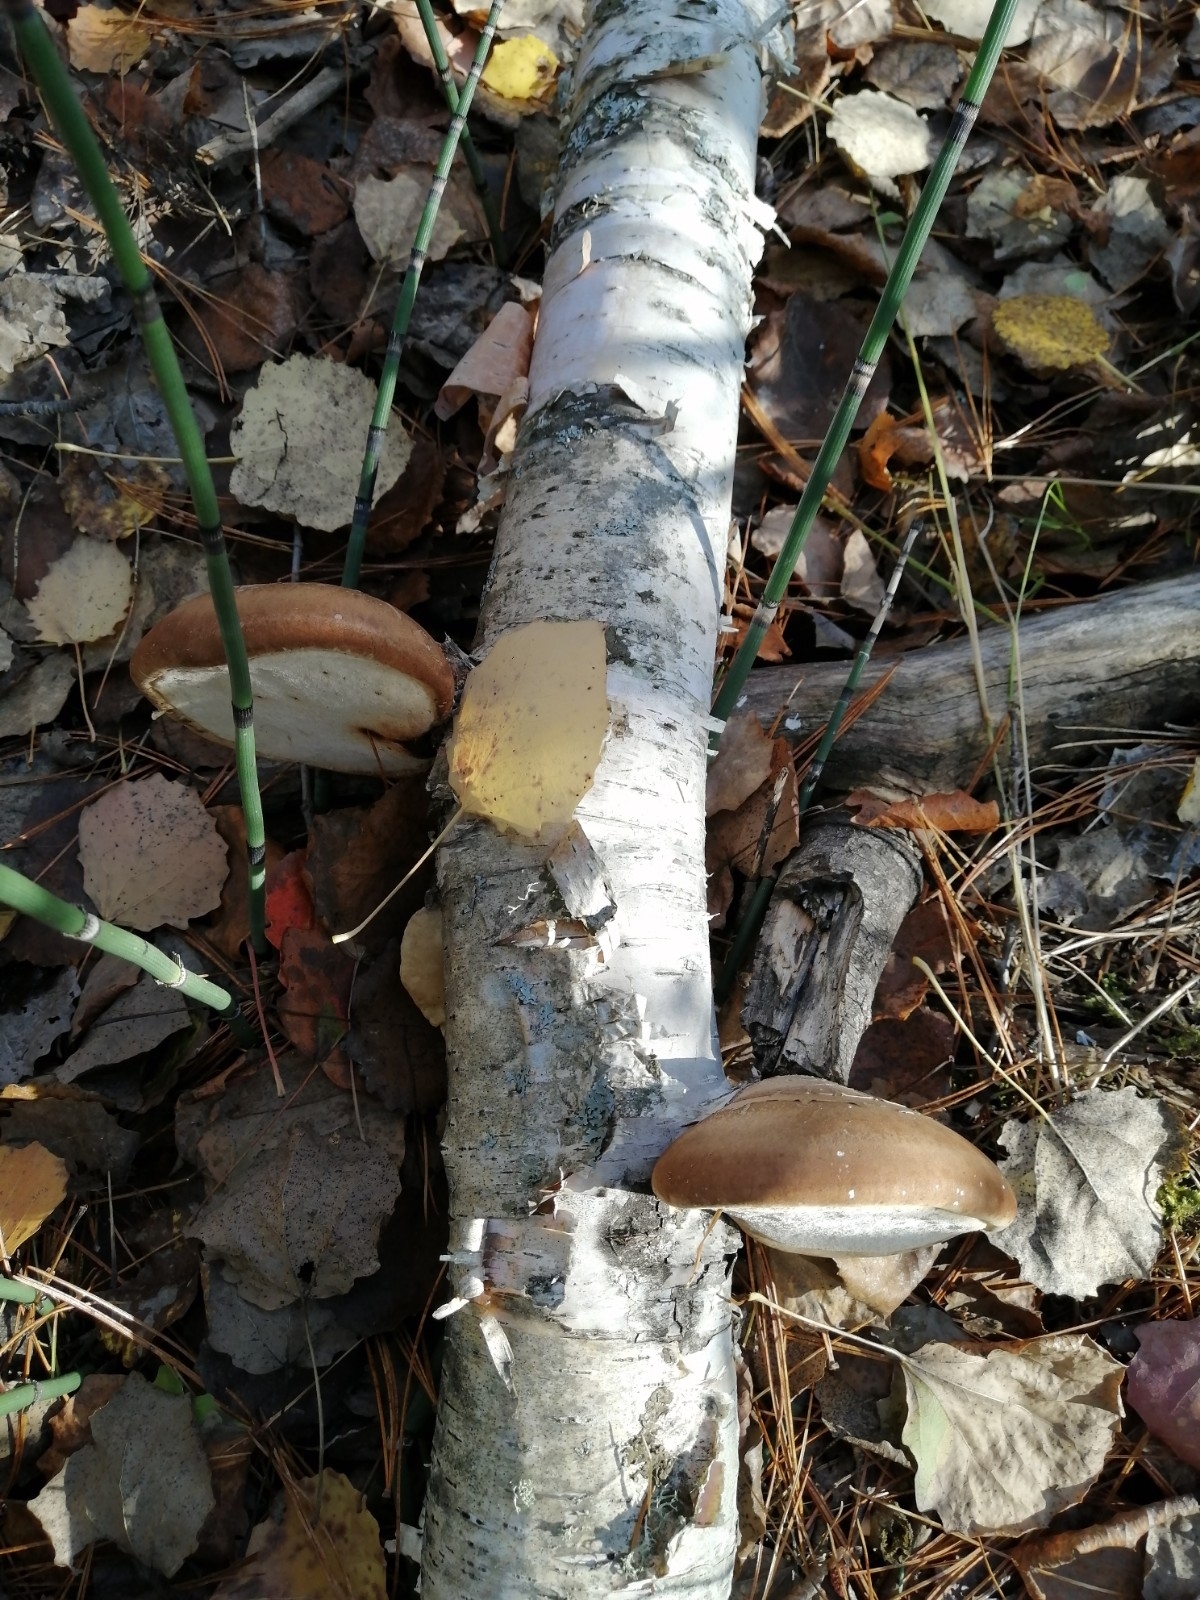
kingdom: Fungi
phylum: Basidiomycota
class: Agaricomycetes
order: Polyporales
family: Fomitopsidaceae
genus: Fomitopsis
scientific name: Fomitopsis betulina
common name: Birch polypore
